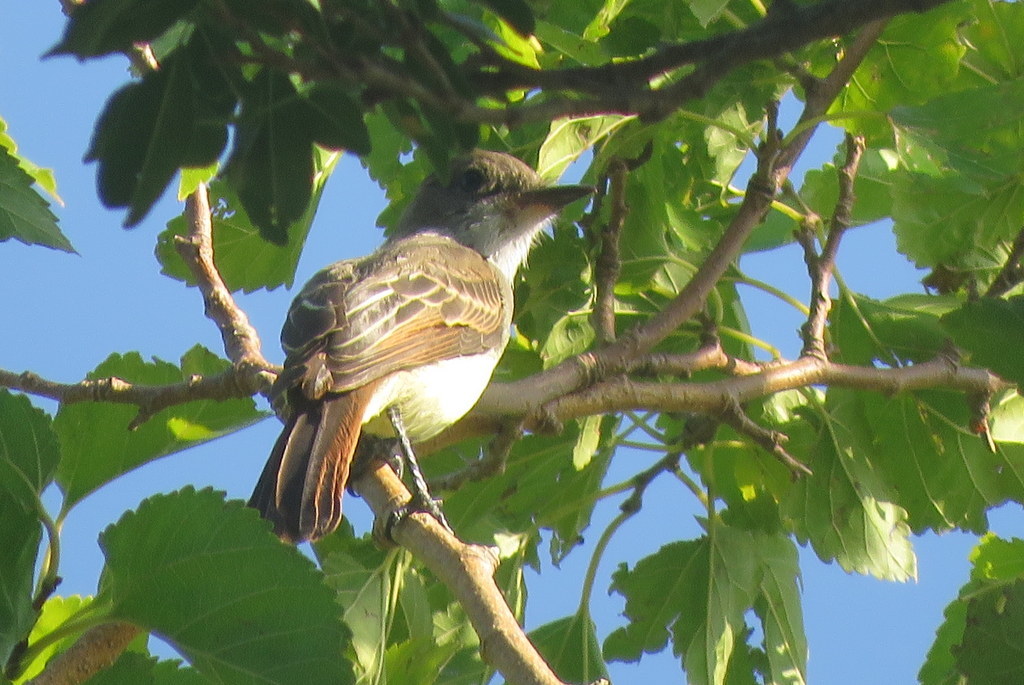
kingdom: Animalia
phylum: Chordata
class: Aves
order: Passeriformes
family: Tyrannidae
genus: Myiarchus
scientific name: Myiarchus swainsoni
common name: Swainson's flycatcher
